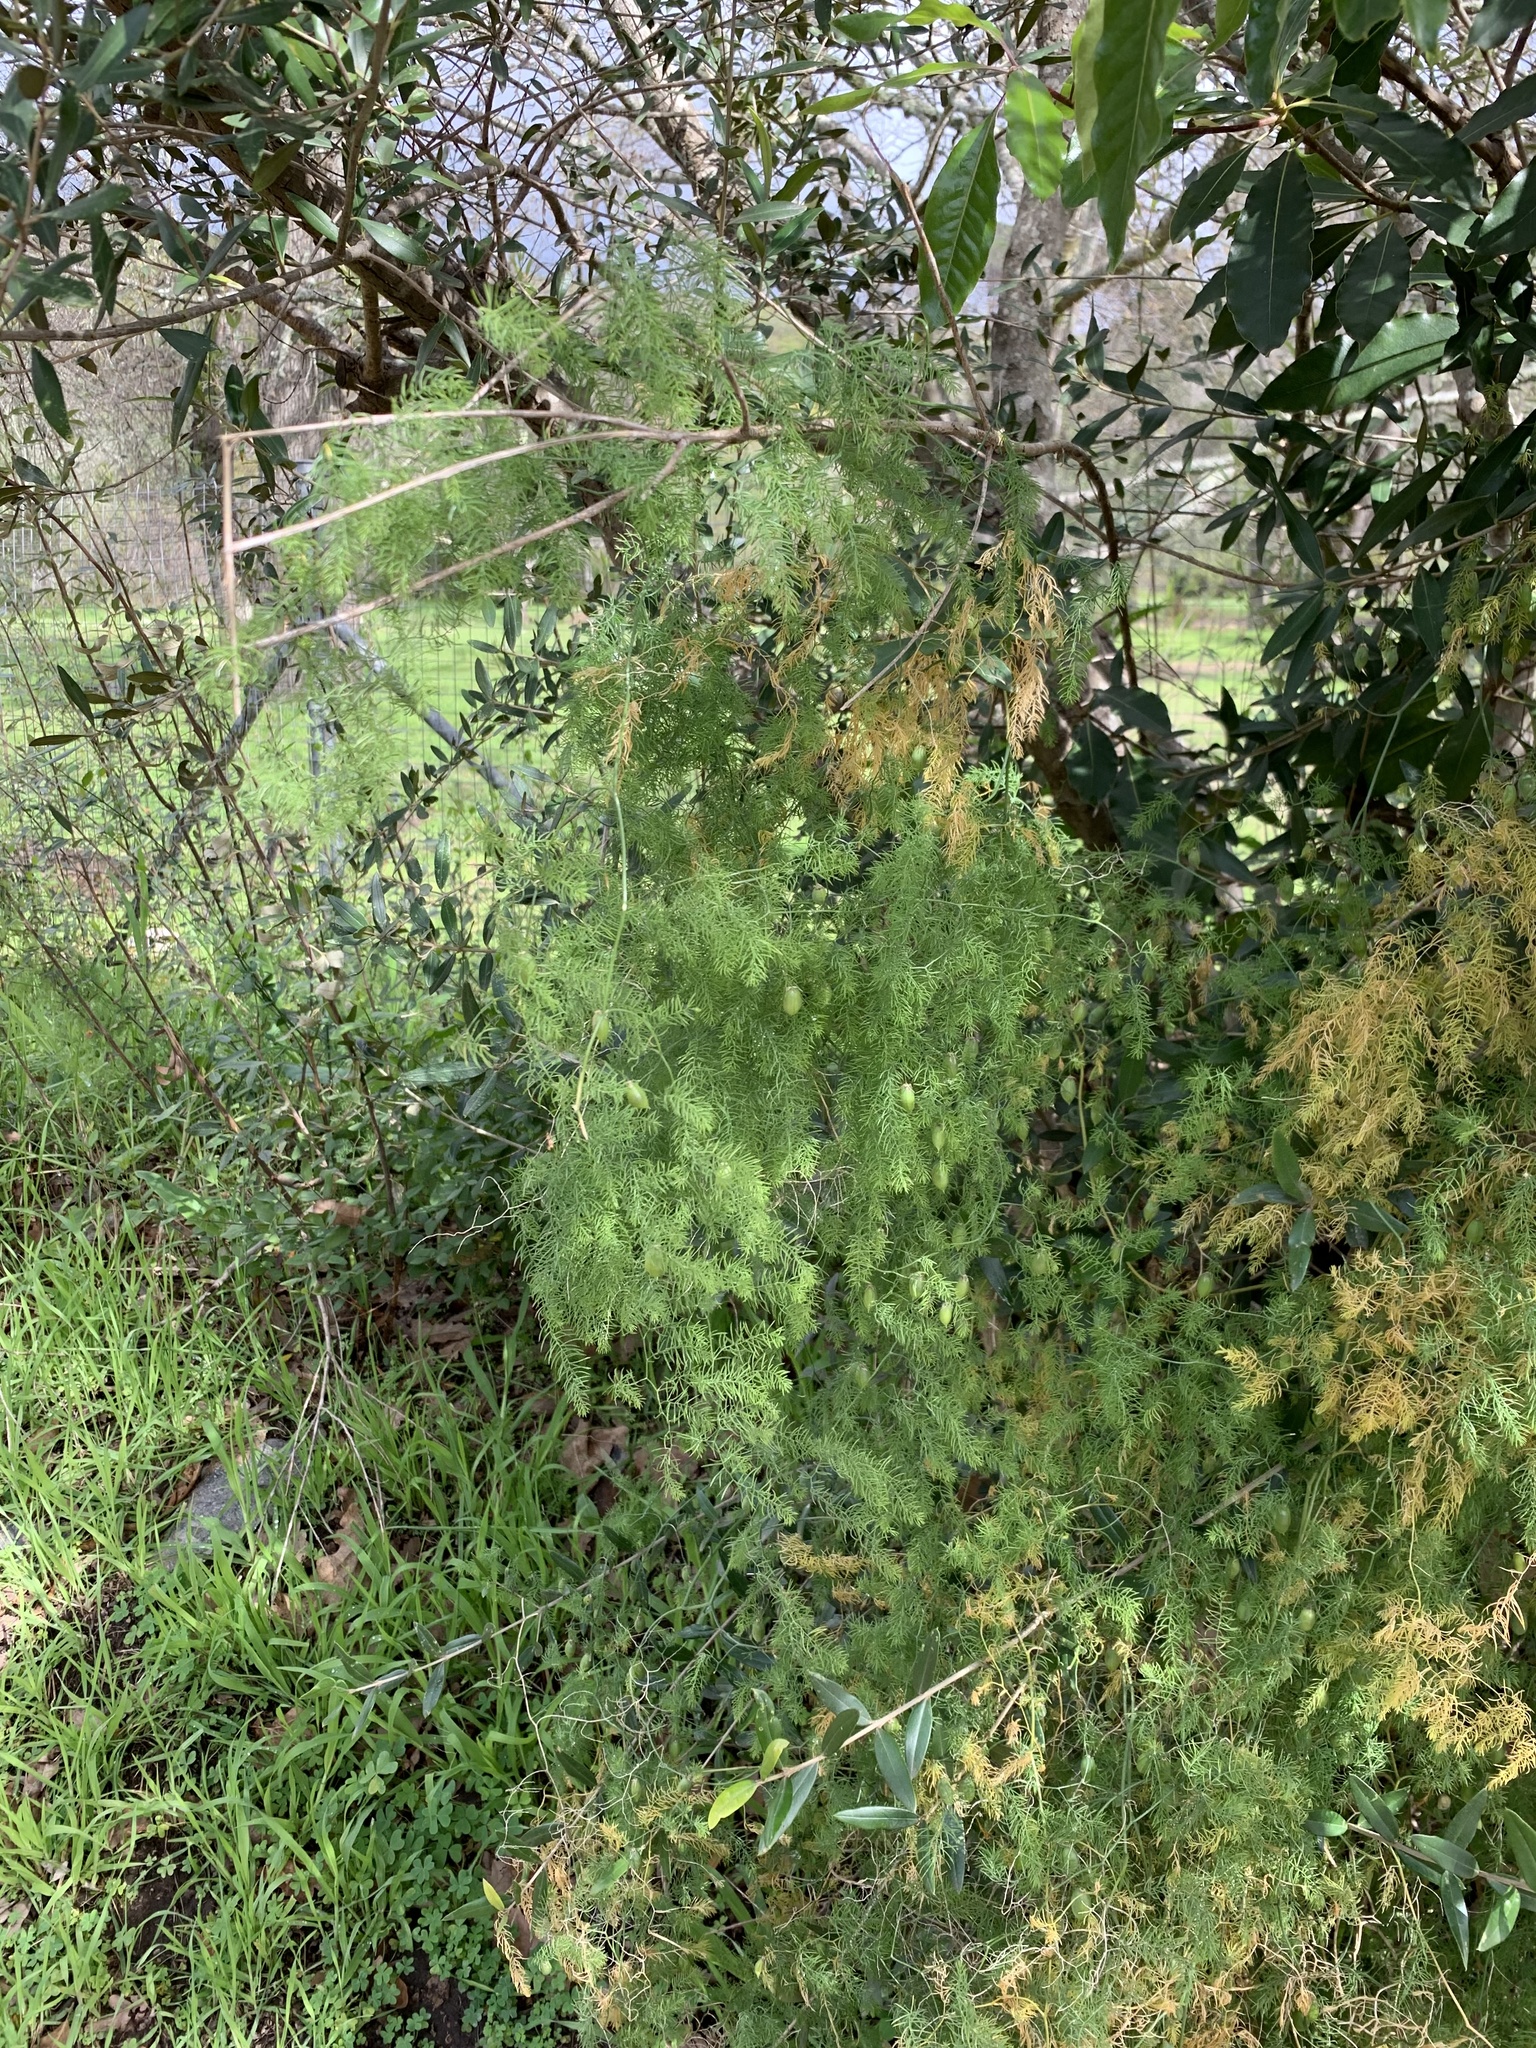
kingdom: Plantae
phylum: Tracheophyta
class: Liliopsida
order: Asparagales
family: Asparagaceae
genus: Asparagus
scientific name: Asparagus declinatus
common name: Bridal-creeper
